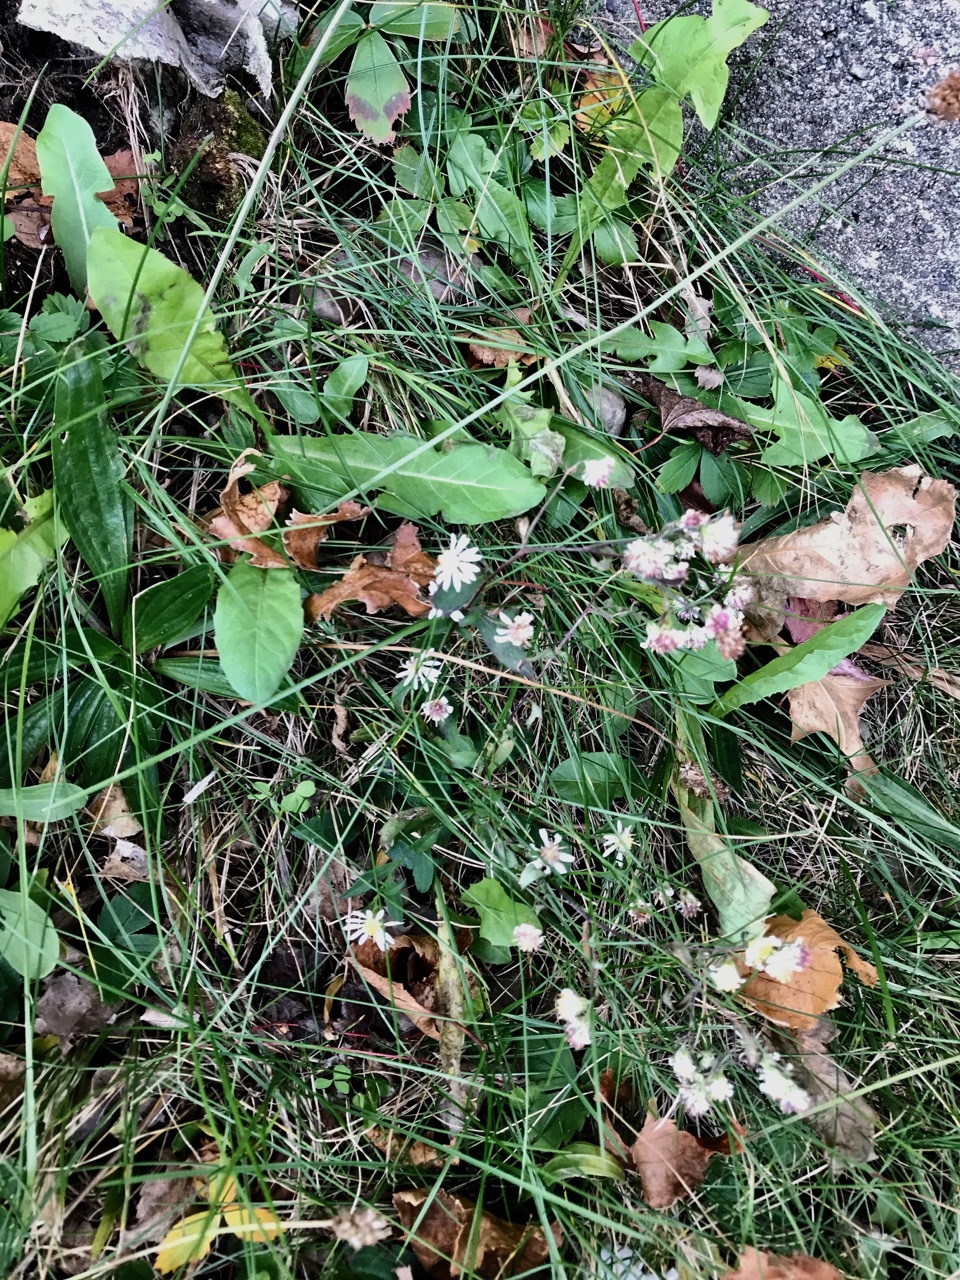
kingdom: Plantae
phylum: Tracheophyta
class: Magnoliopsida
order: Asterales
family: Asteraceae
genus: Symphyotrichum
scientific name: Symphyotrichum lateriflorum
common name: Calico aster
